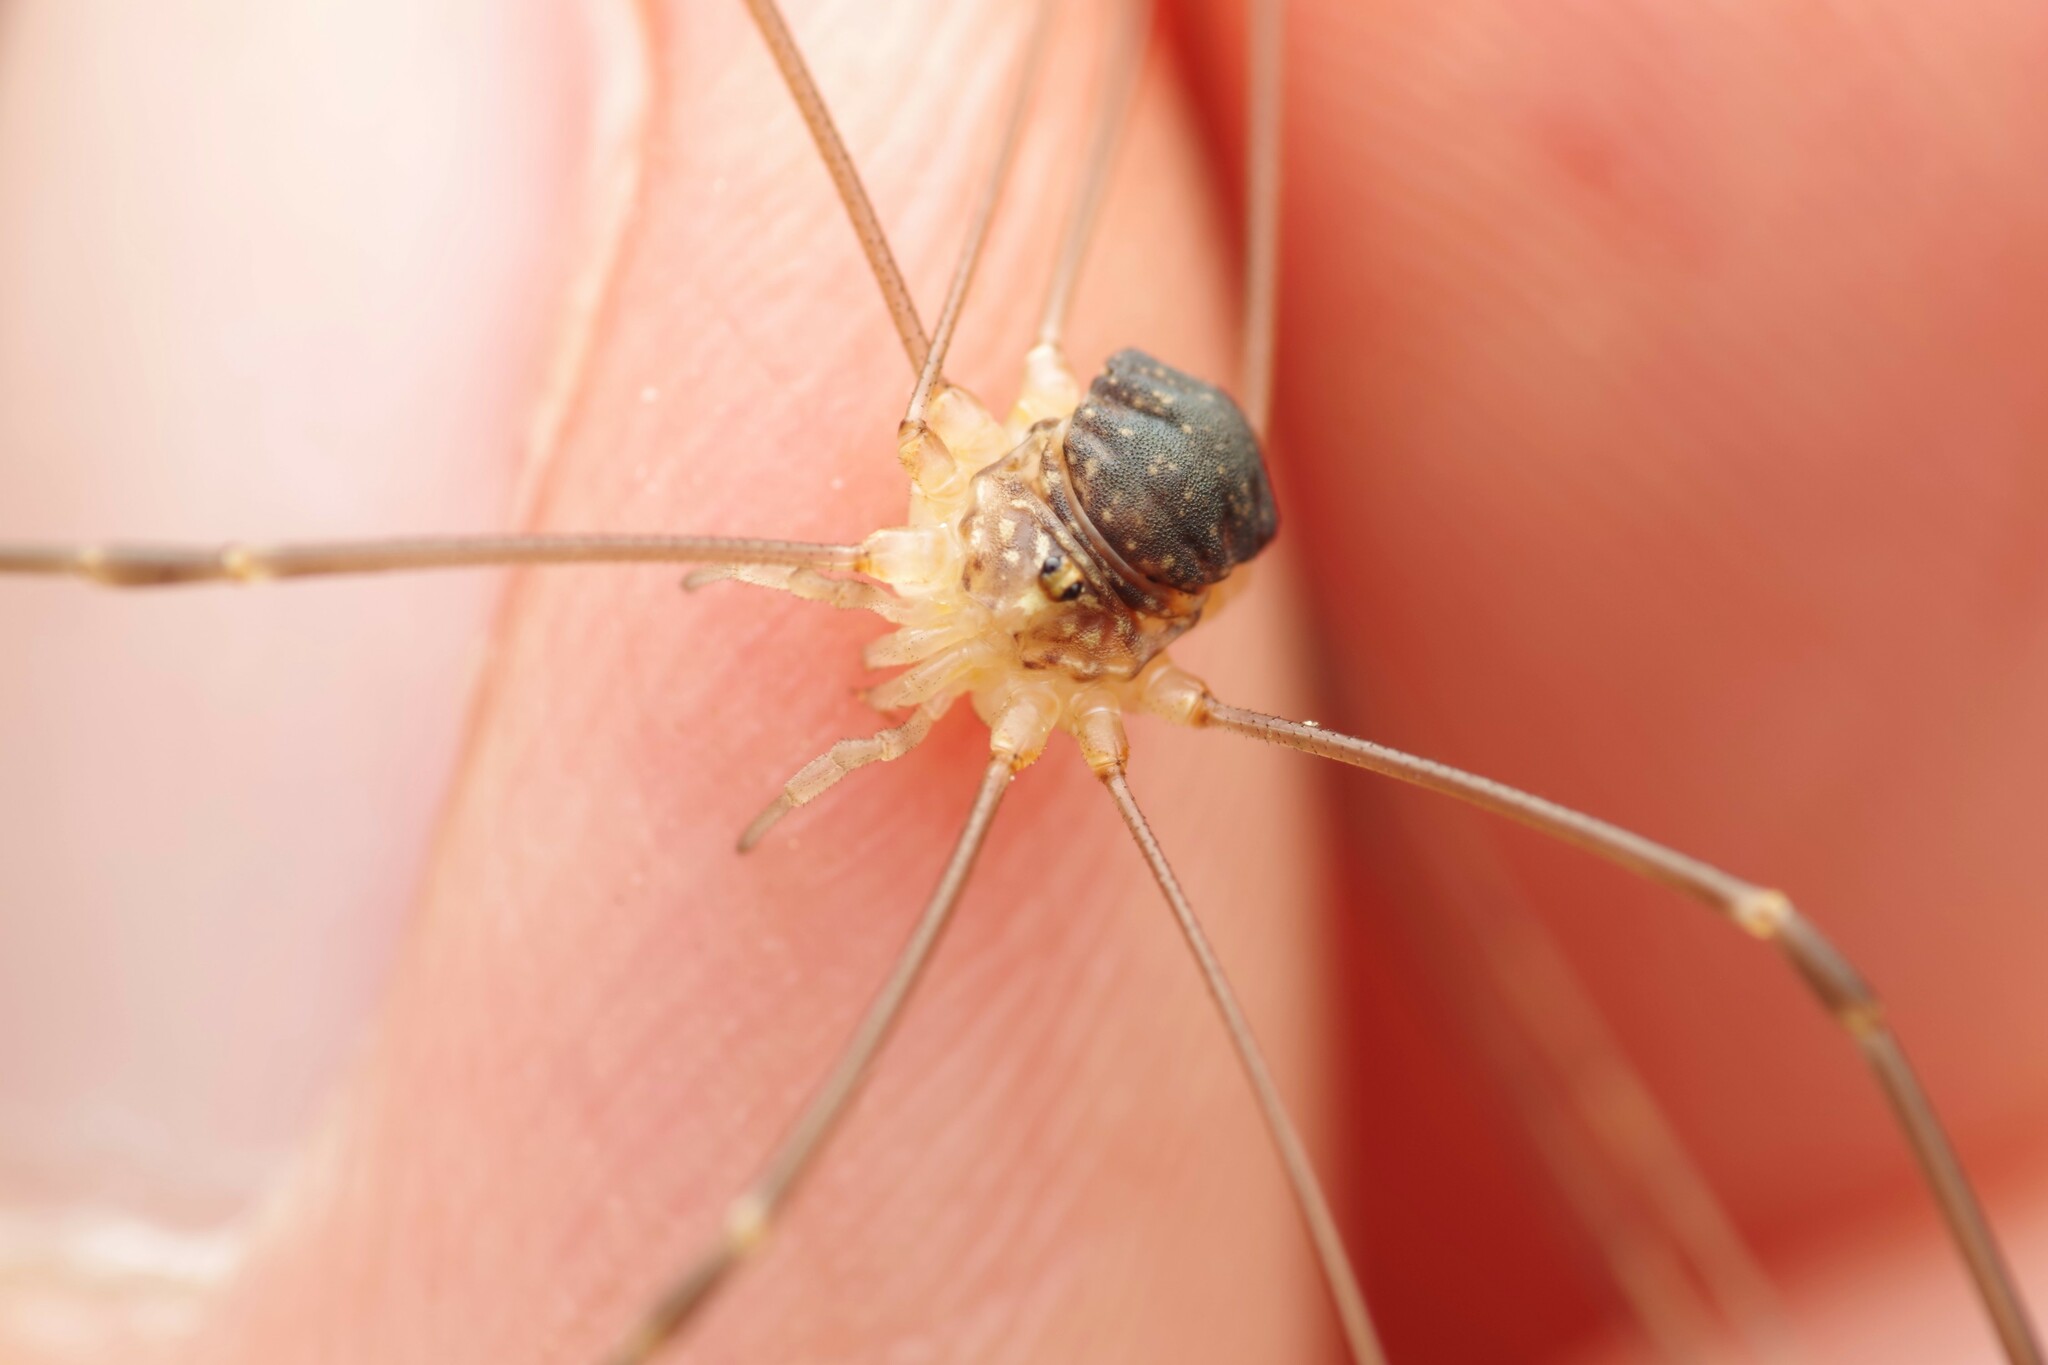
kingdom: Animalia
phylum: Arthropoda
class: Arachnida
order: Opiliones
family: Sclerosomatidae
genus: Nelima
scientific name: Nelima gothica
